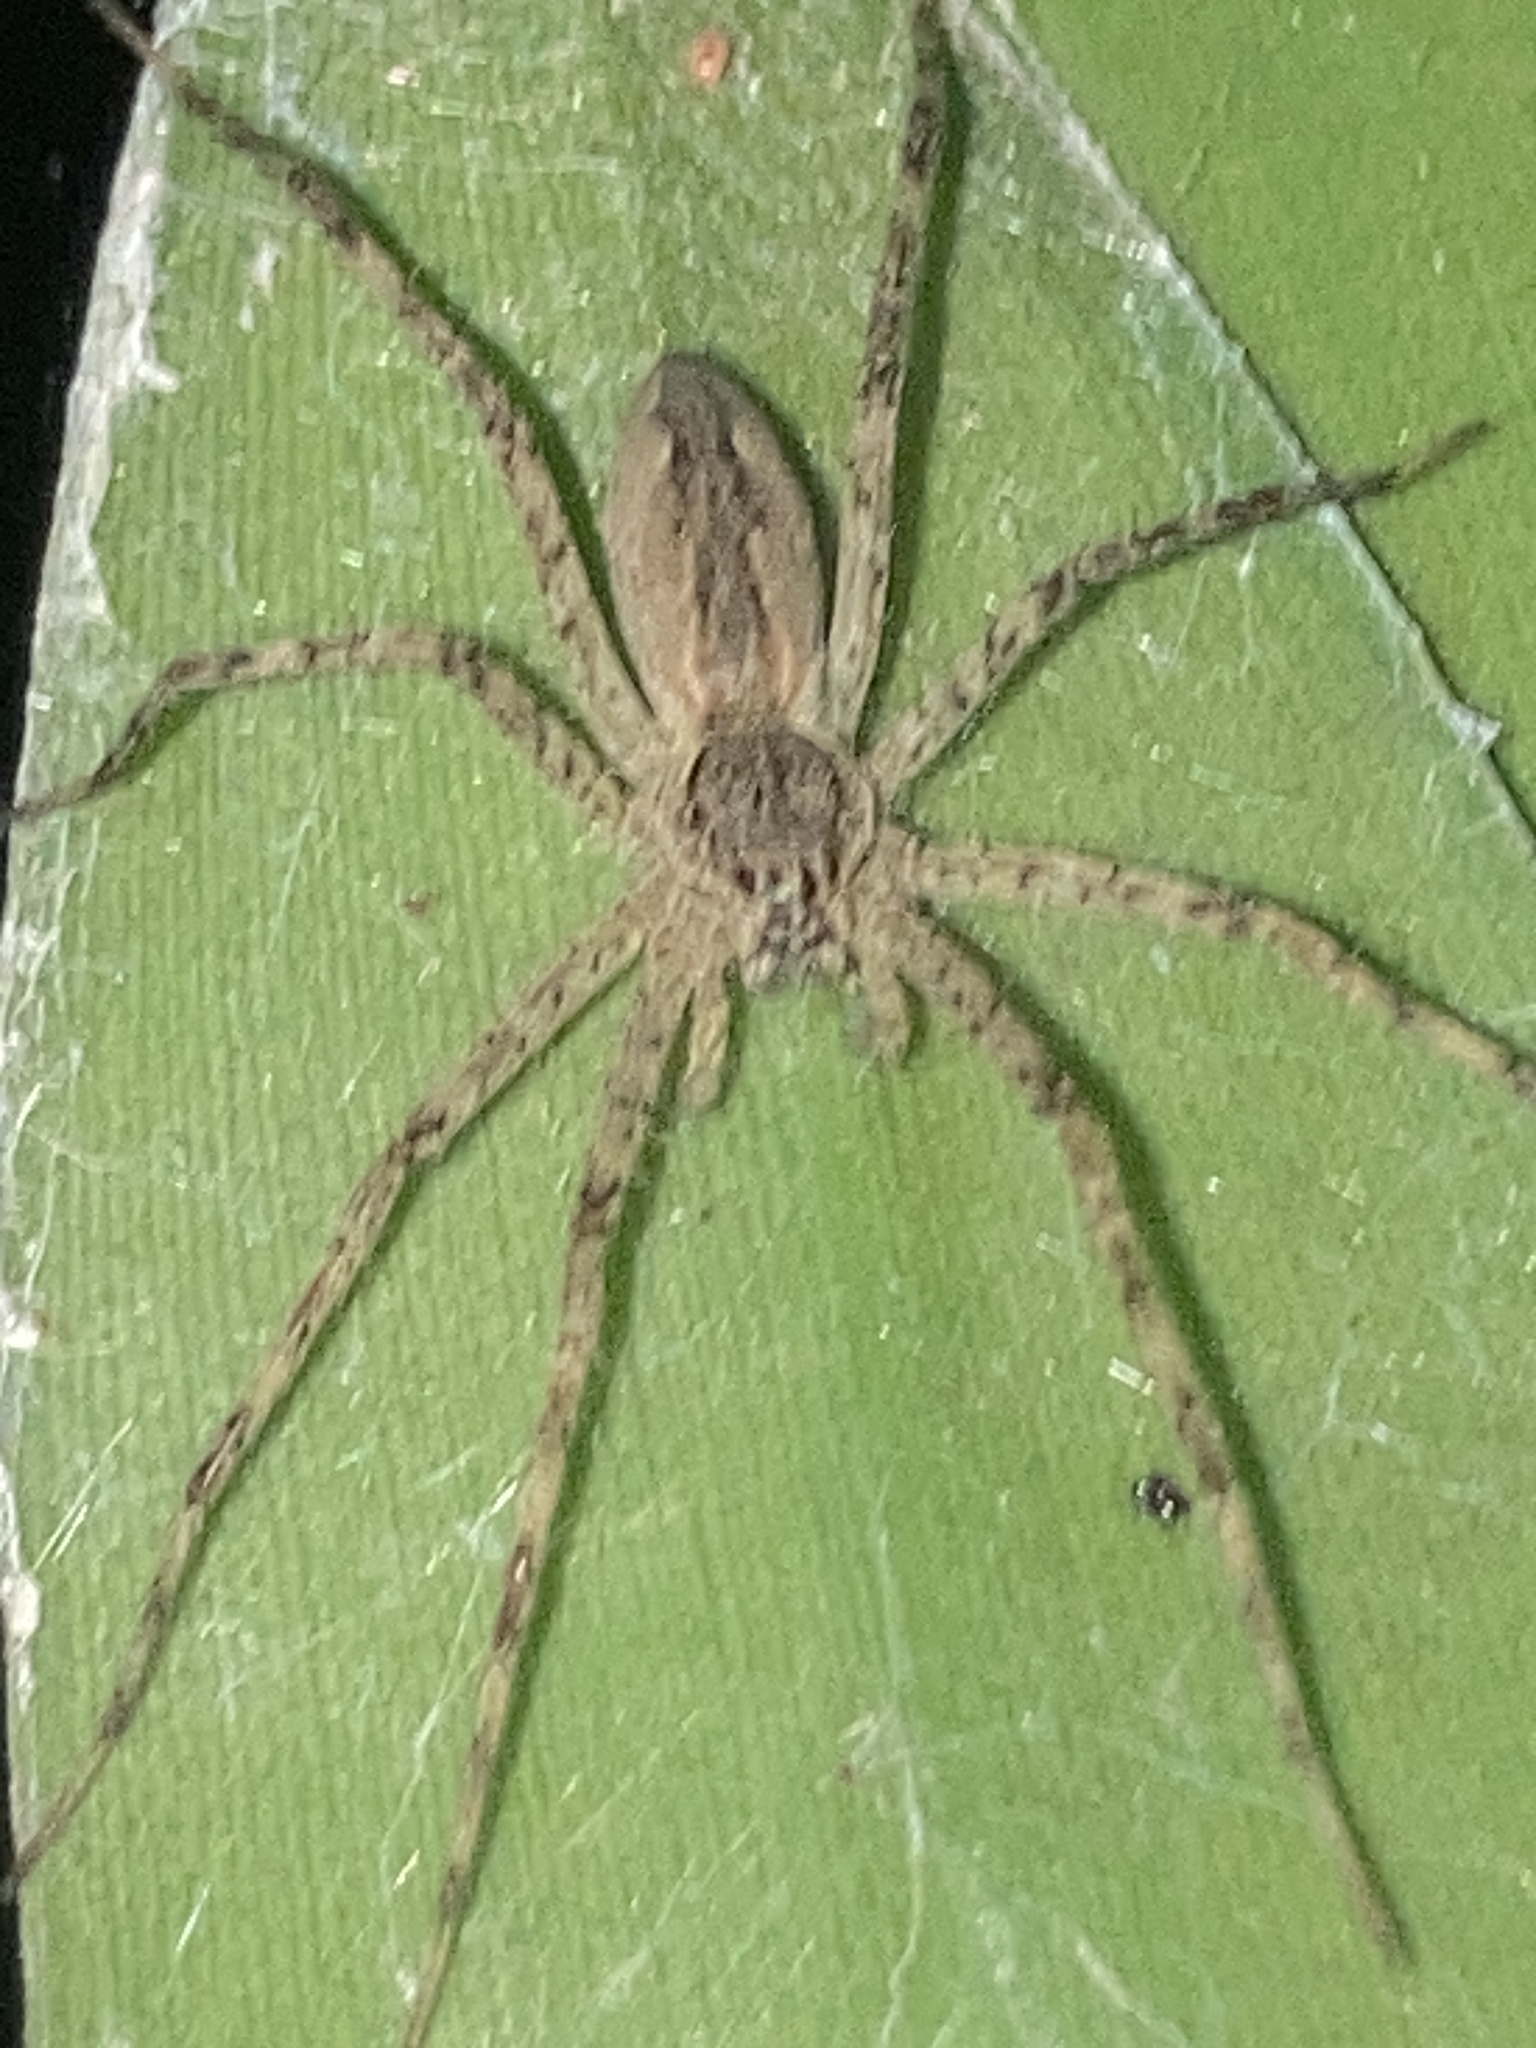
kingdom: Animalia
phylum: Arthropoda
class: Arachnida
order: Araneae
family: Pisauridae
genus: Megadolomedes
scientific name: Megadolomedes australianus
